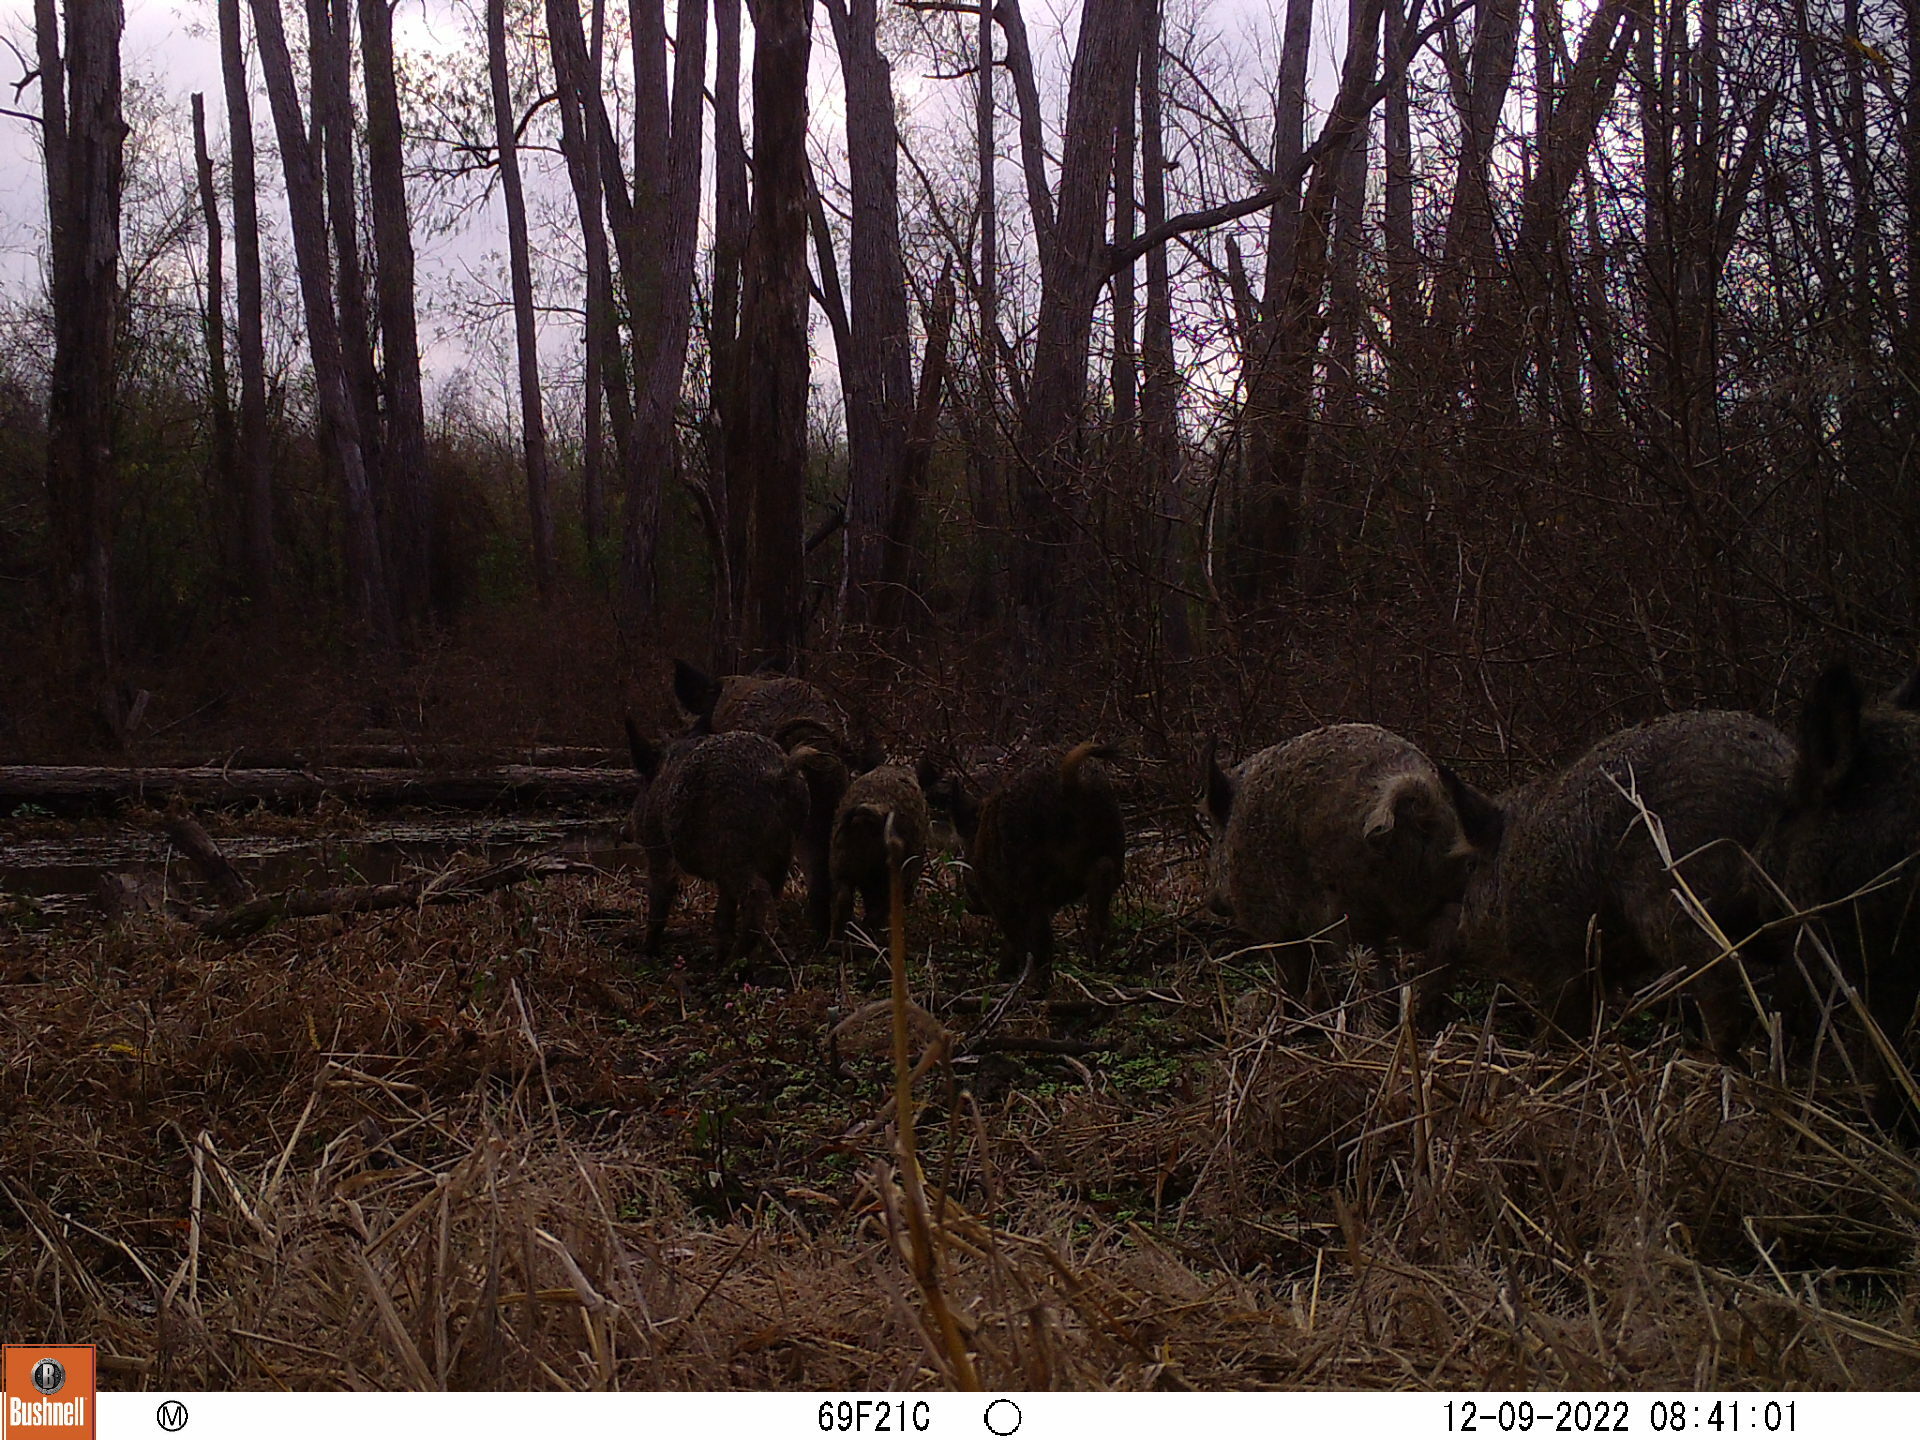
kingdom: Animalia
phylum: Chordata
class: Mammalia
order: Artiodactyla
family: Suidae
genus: Sus
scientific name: Sus scrofa
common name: Wild boar
